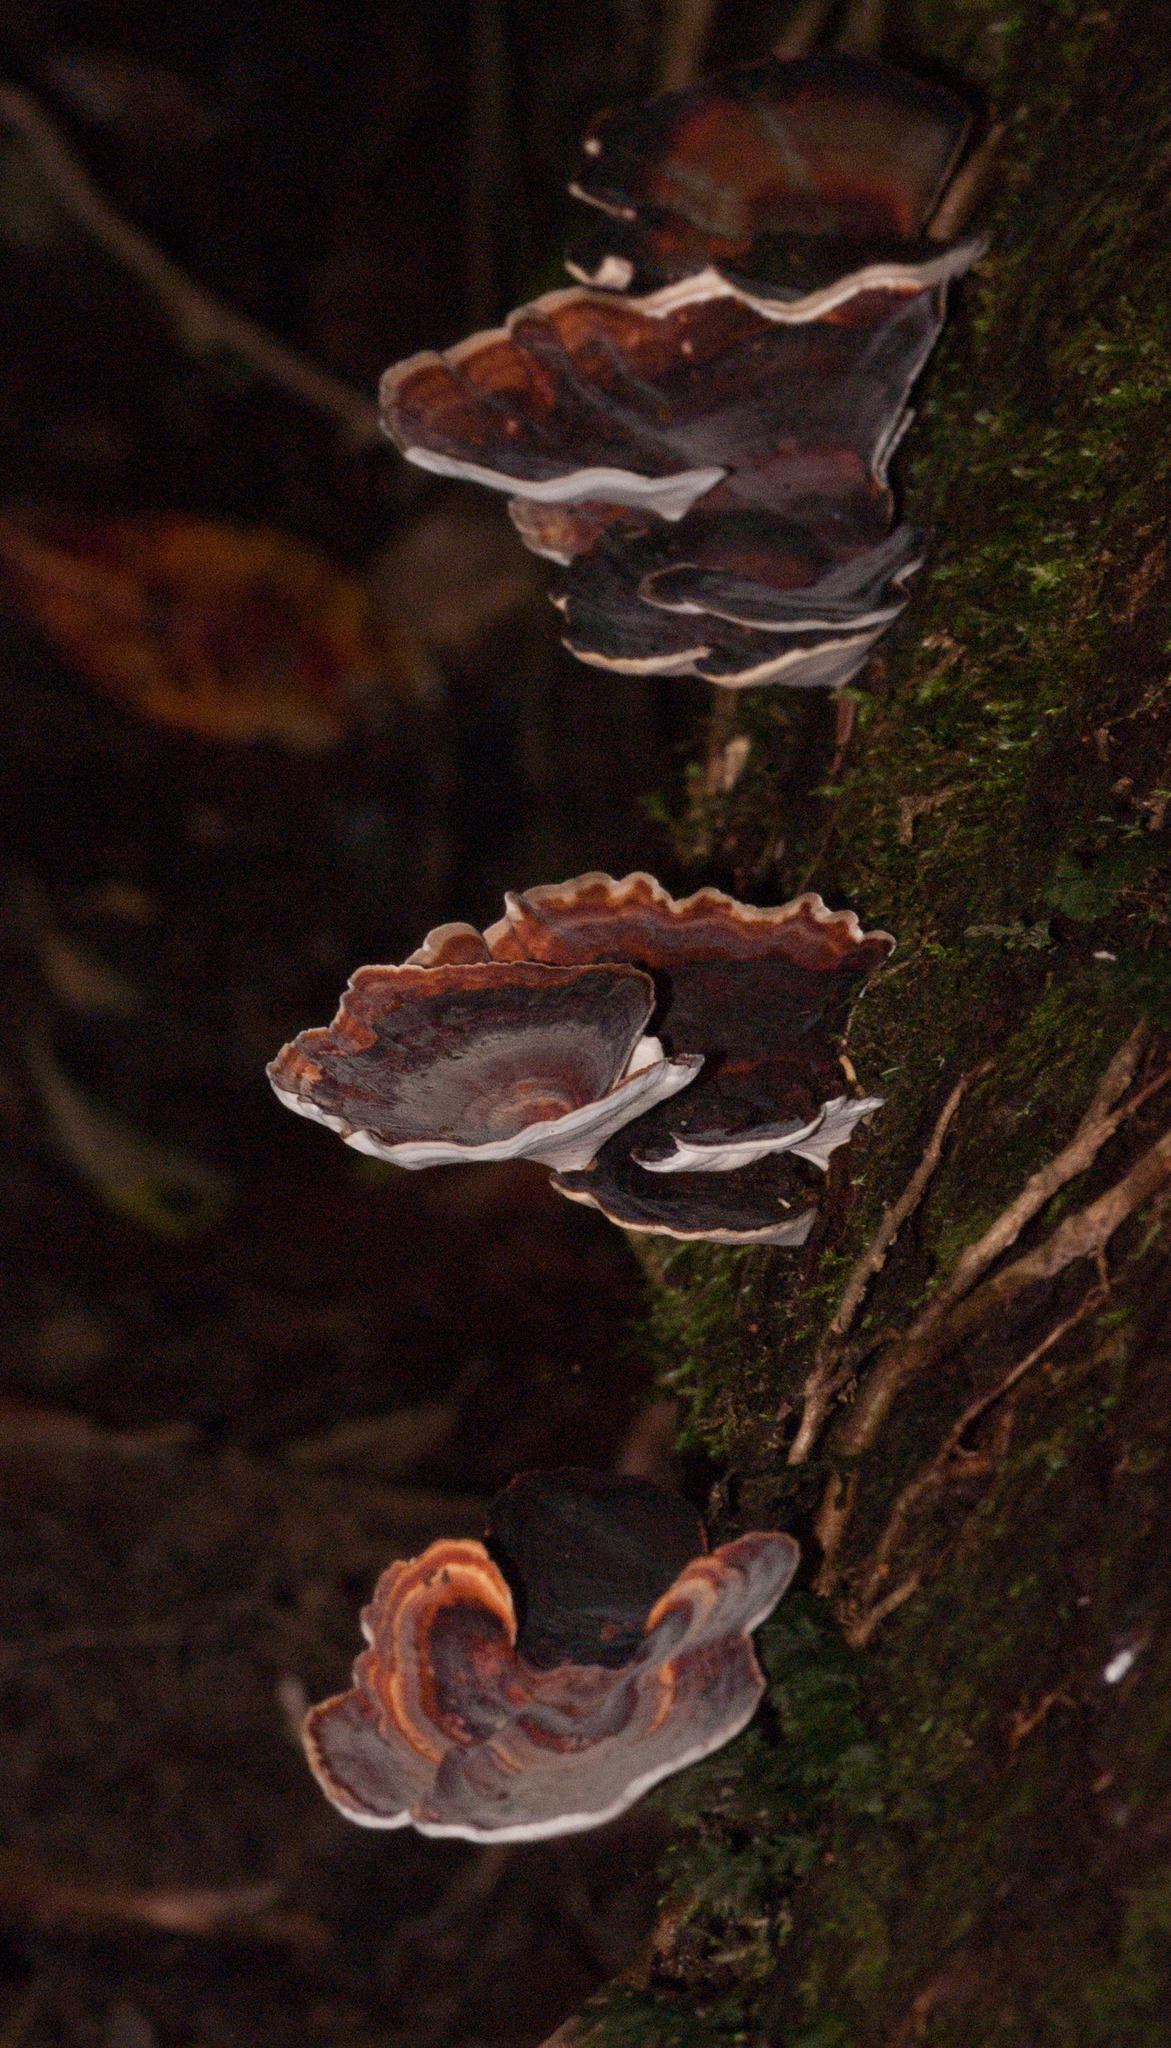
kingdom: Fungi
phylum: Basidiomycota
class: Agaricomycetes
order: Polyporales
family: Polyporaceae
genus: Microporus
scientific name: Microporus affinis
